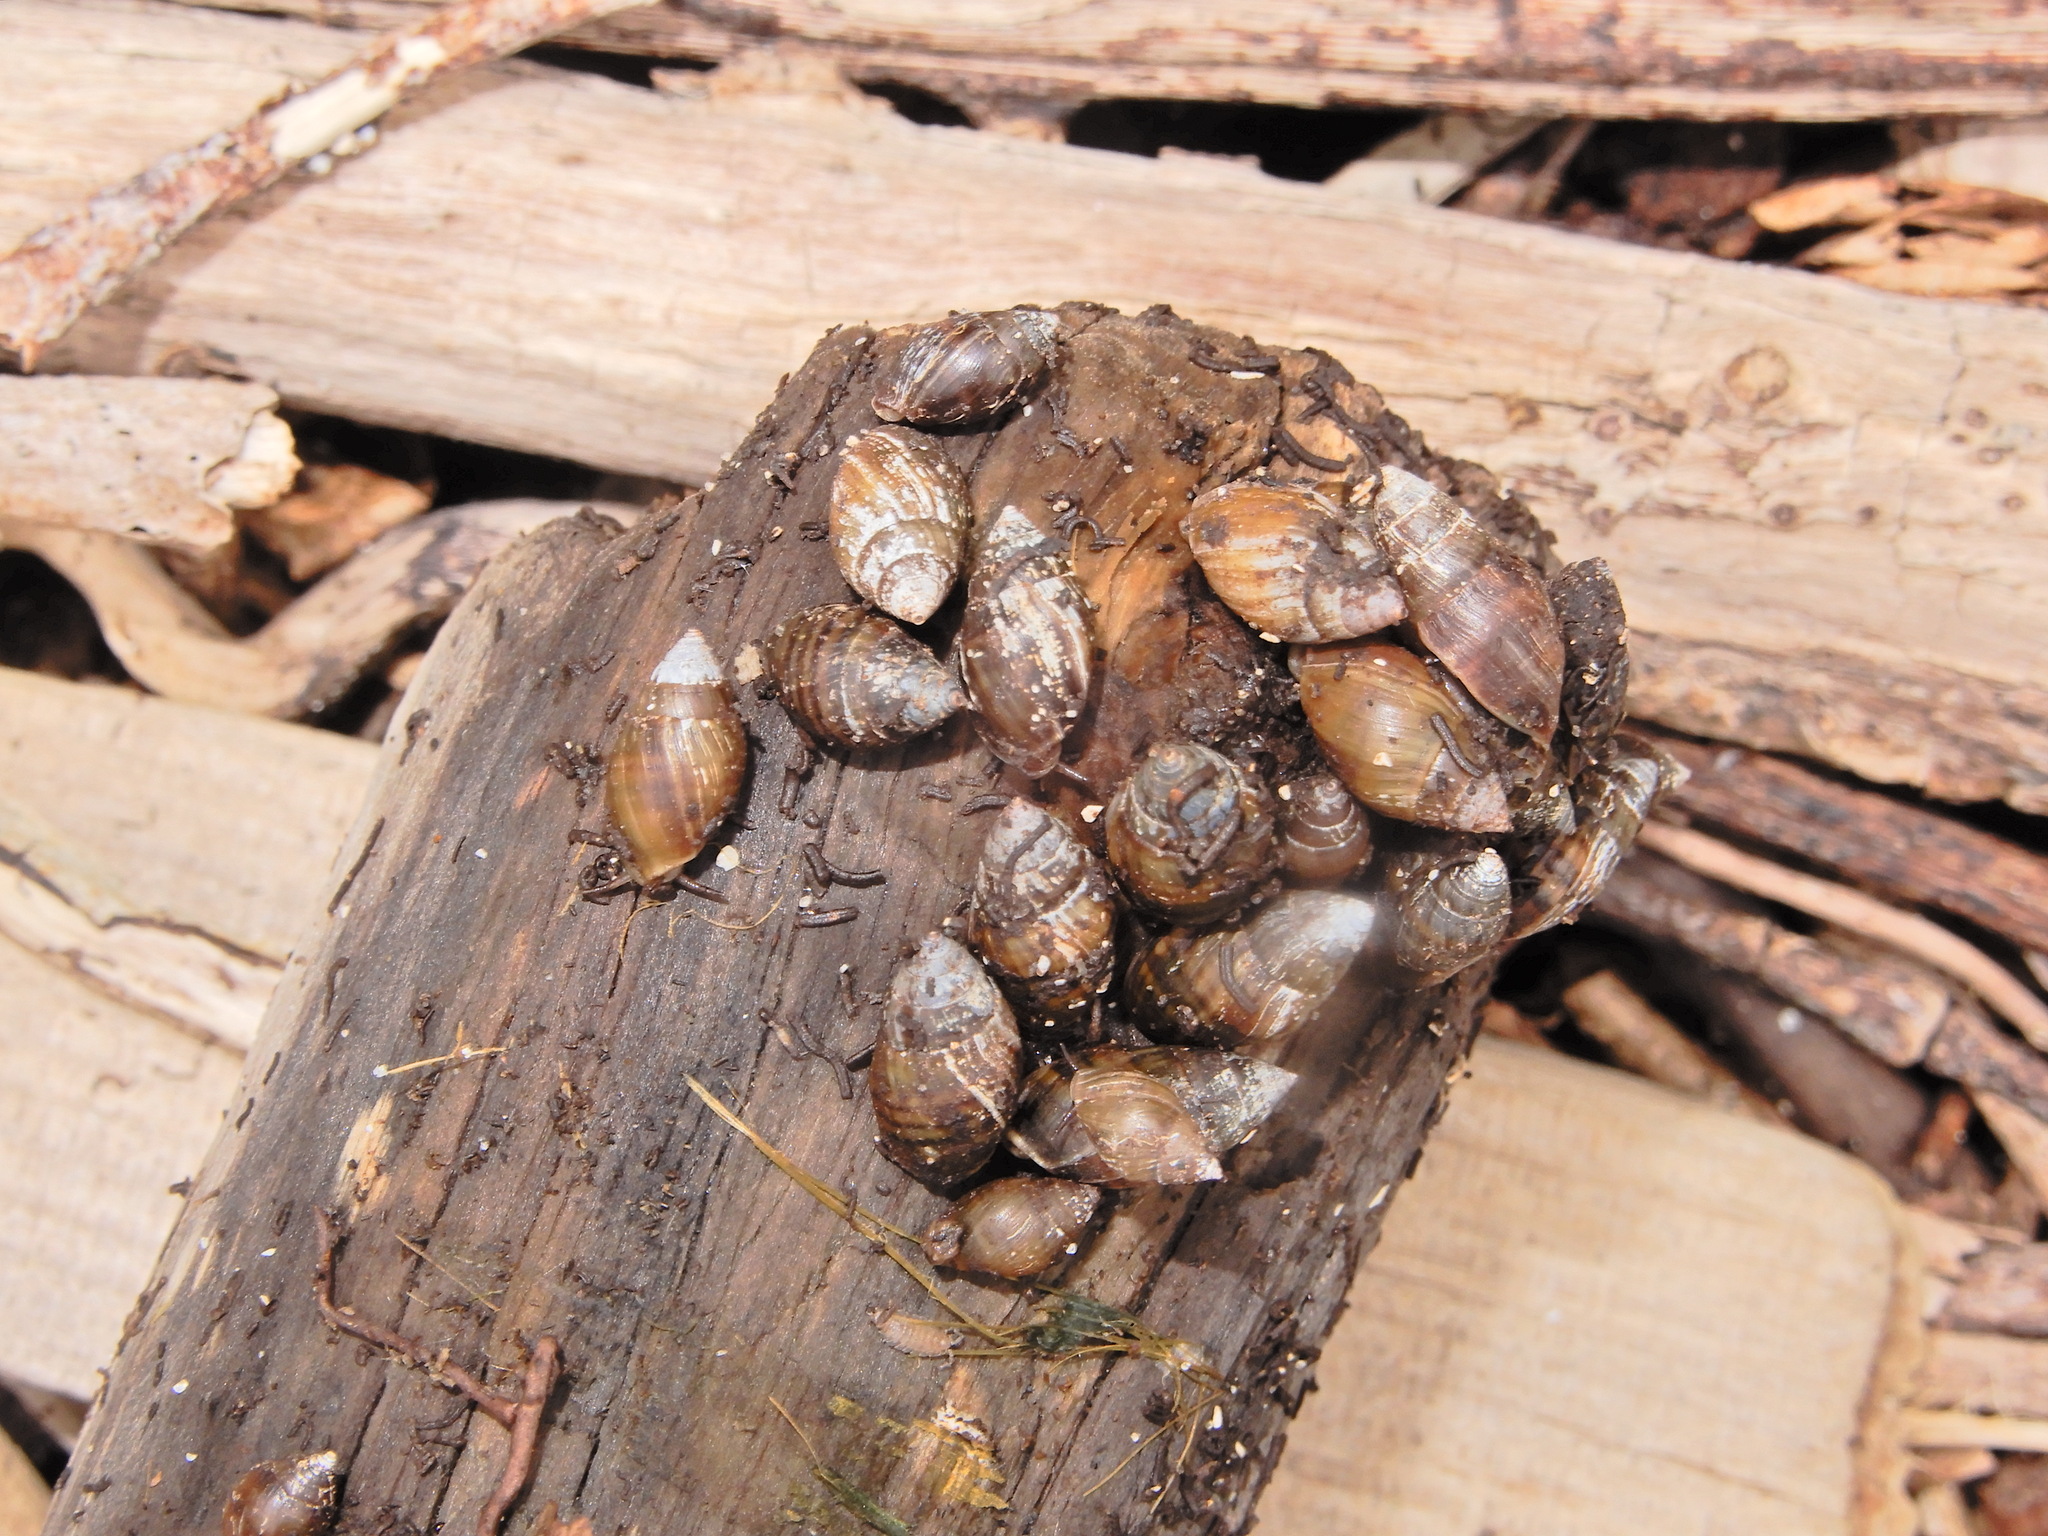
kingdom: Animalia
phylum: Mollusca
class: Gastropoda
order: Ellobiida
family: Ellobiidae
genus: Pleuroloba
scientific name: Pleuroloba costellaris
